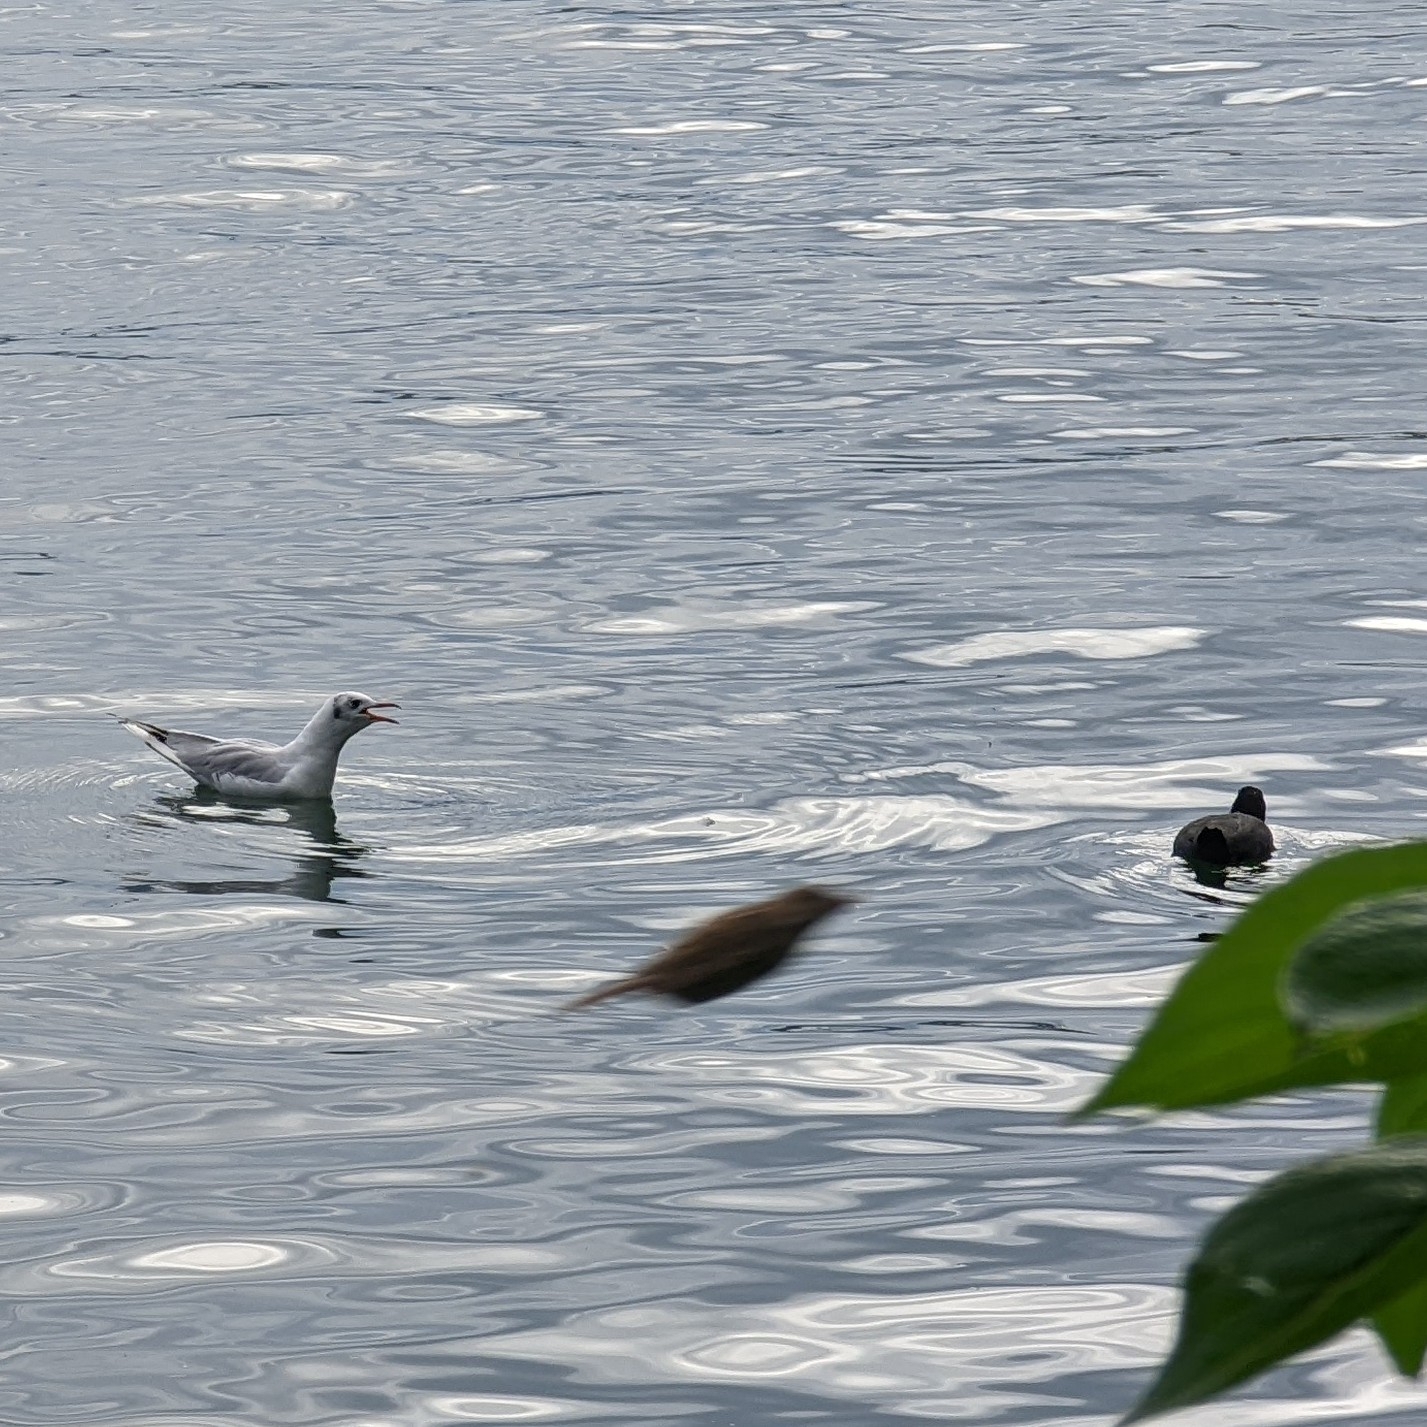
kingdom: Animalia
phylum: Chordata
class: Aves
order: Charadriiformes
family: Laridae
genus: Chroicocephalus
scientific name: Chroicocephalus ridibundus
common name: Black-headed gull
